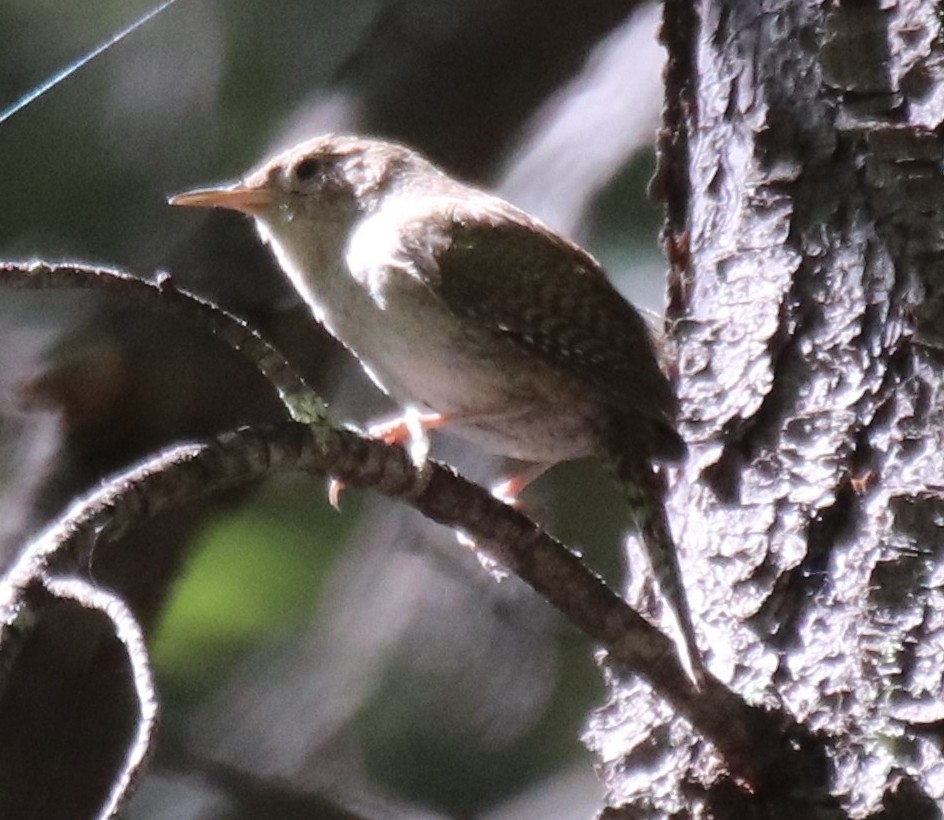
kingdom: Animalia
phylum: Chordata
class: Aves
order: Passeriformes
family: Troglodytidae
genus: Troglodytes
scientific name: Troglodytes aedon
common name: House wren
